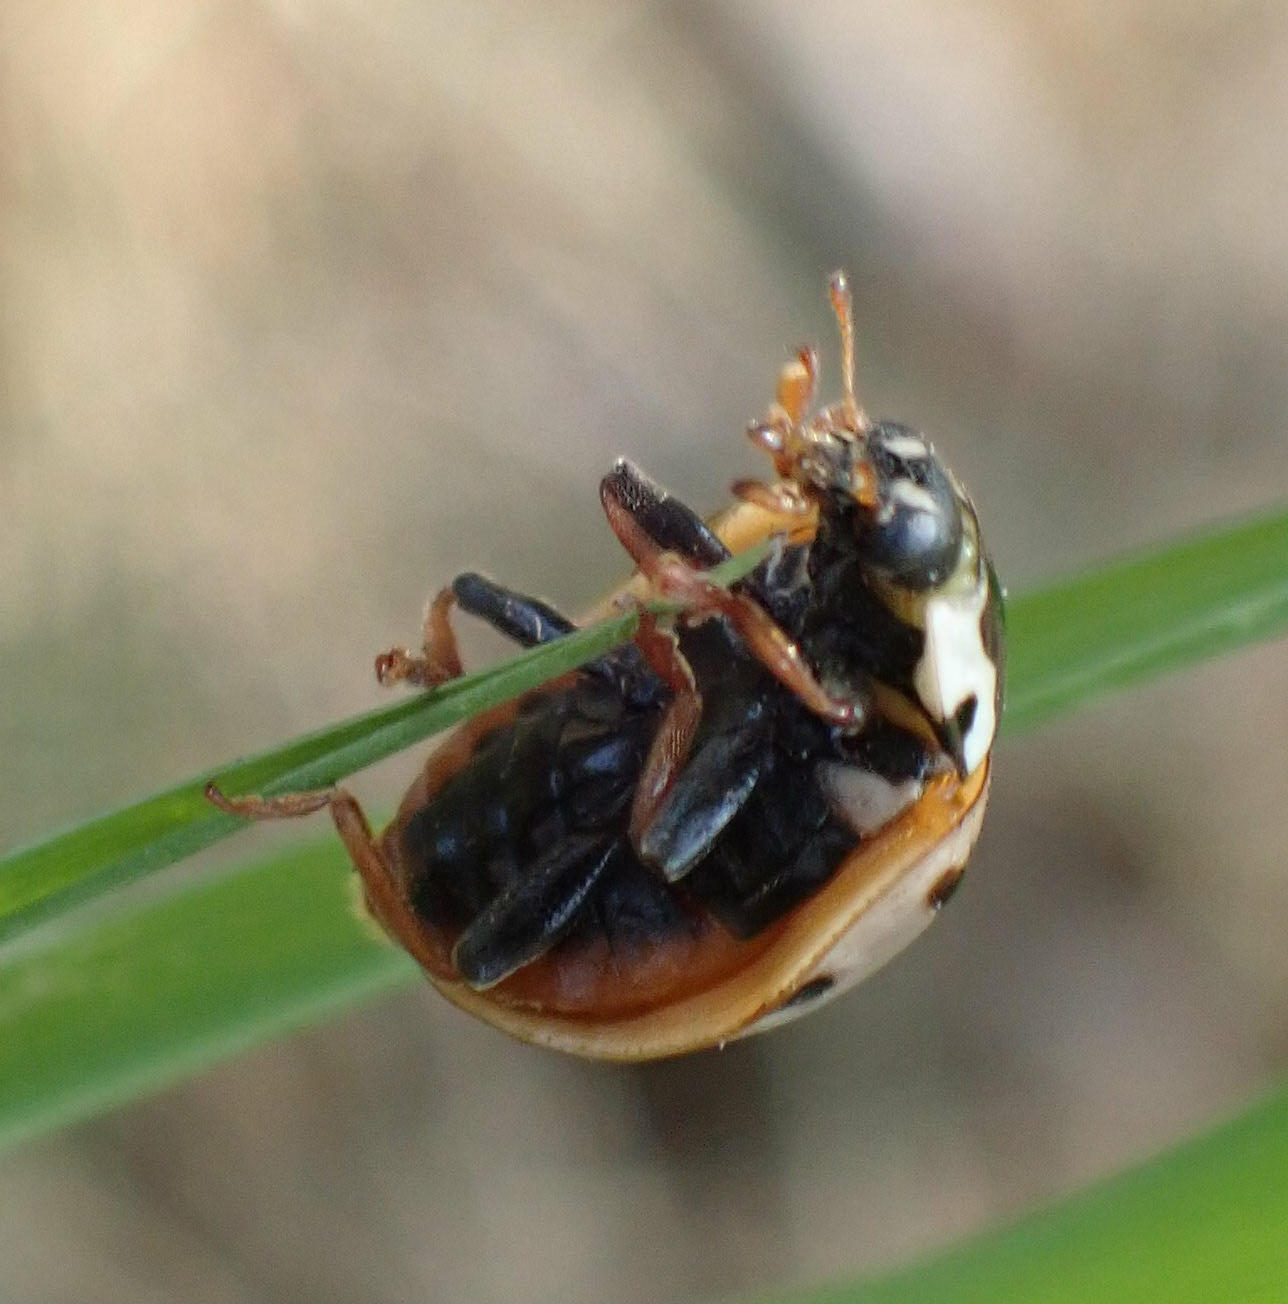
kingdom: Animalia
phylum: Arthropoda
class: Insecta
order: Coleoptera
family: Coccinellidae
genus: Anatis
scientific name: Anatis labiculata
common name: Fifteen-spotted lady beetle
